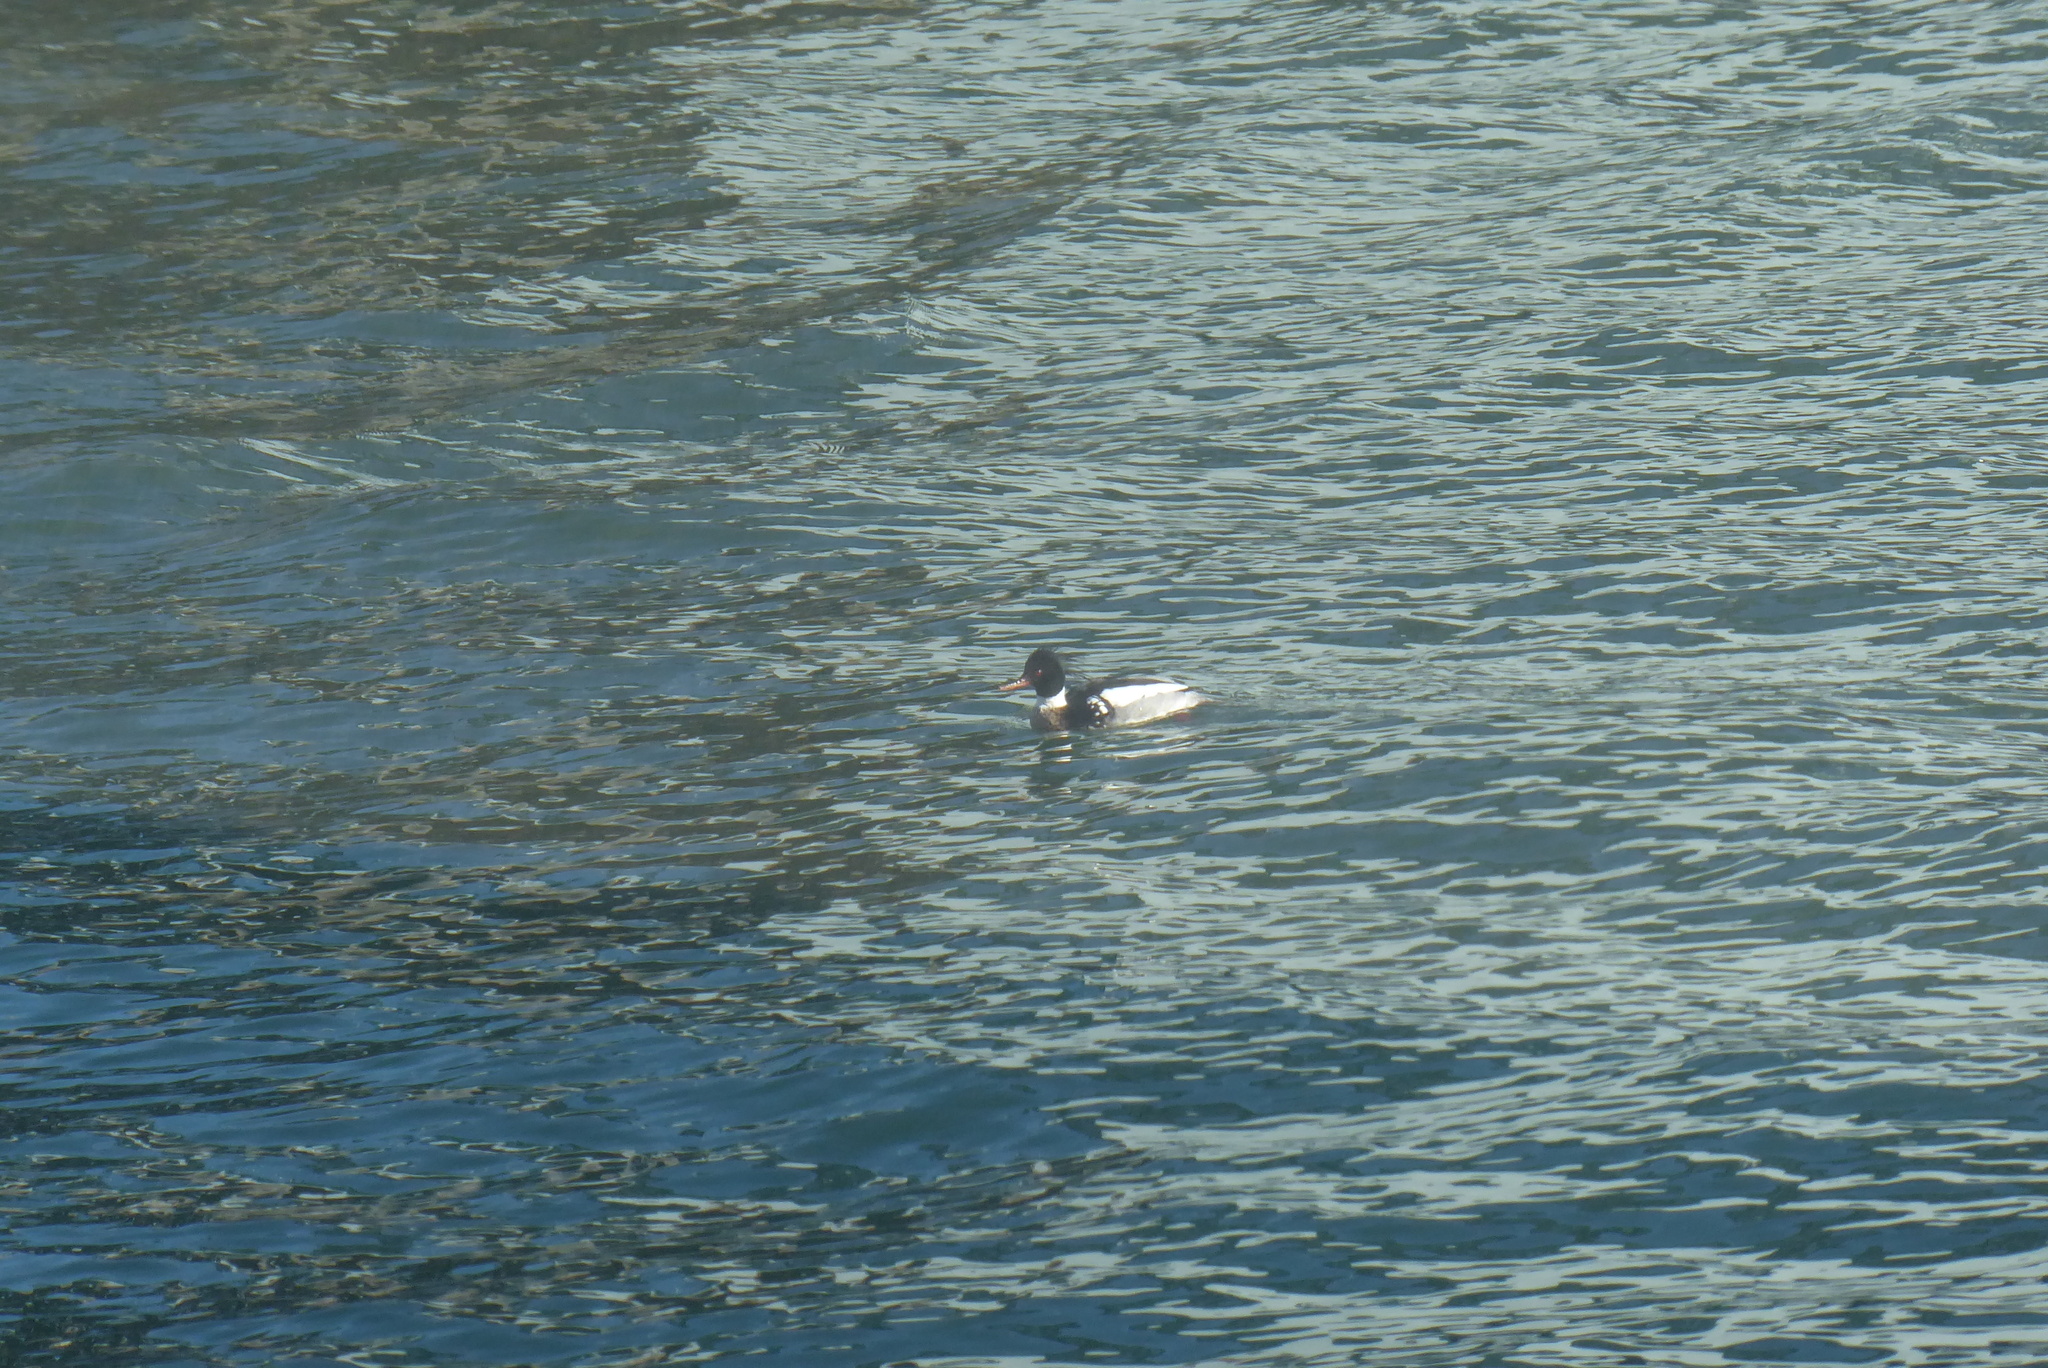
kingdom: Animalia
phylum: Chordata
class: Aves
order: Anseriformes
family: Anatidae
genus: Mergus
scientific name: Mergus serrator
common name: Red-breasted merganser
